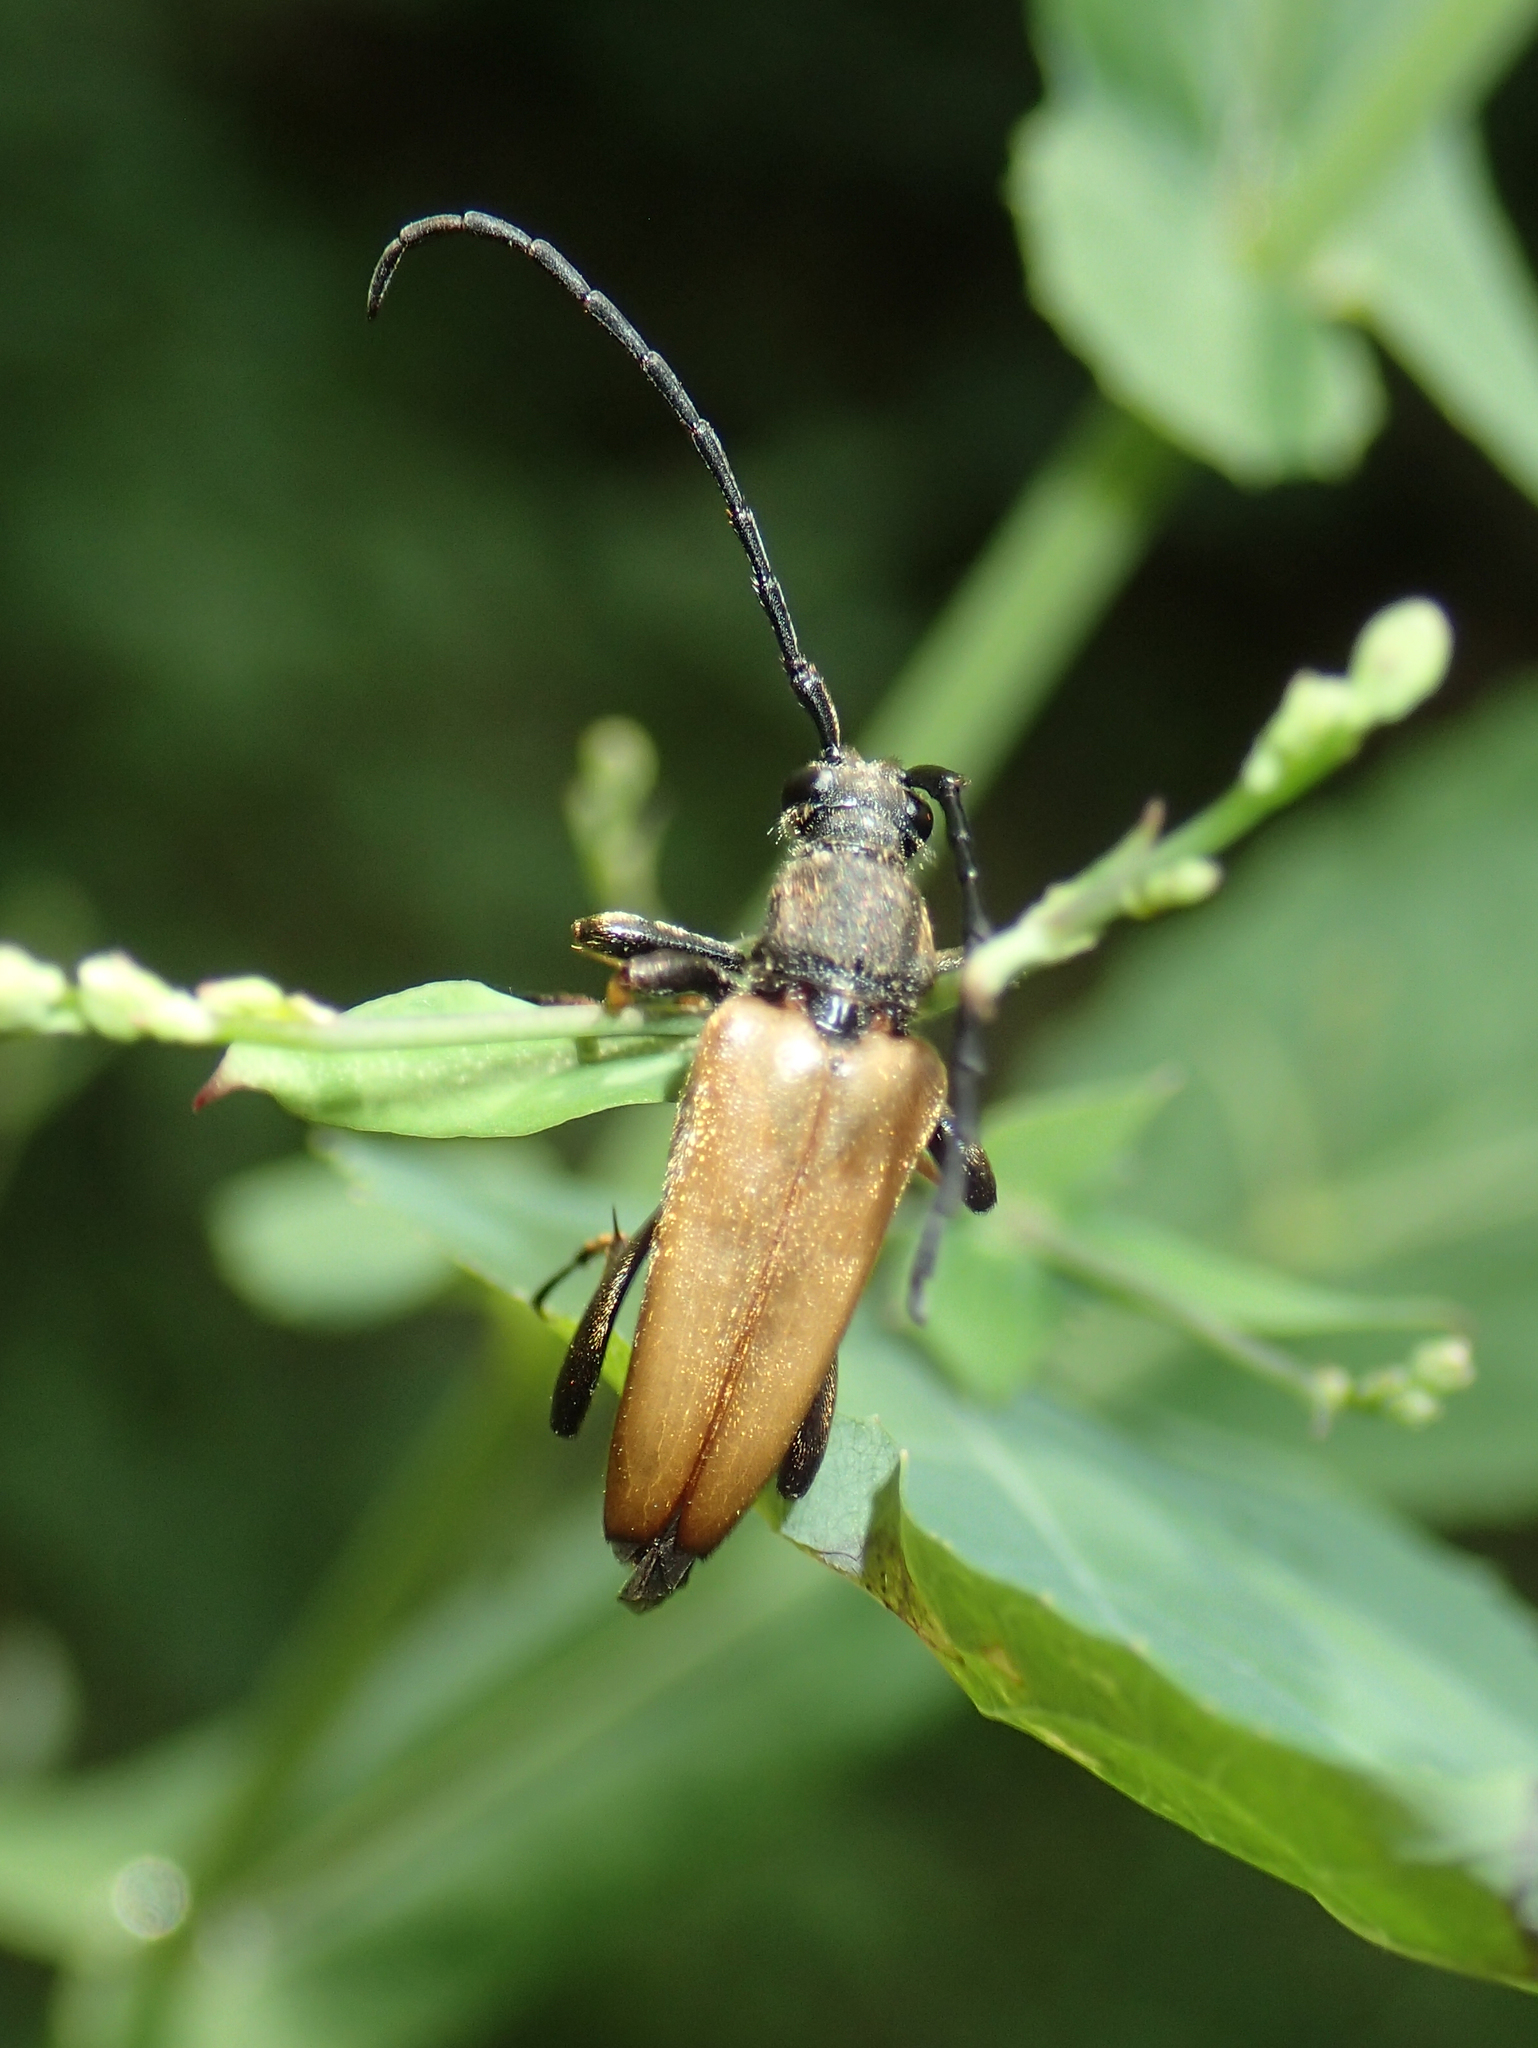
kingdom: Animalia
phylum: Arthropoda
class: Insecta
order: Coleoptera
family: Cerambycidae
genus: Stictoleptura
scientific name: Stictoleptura rubra
